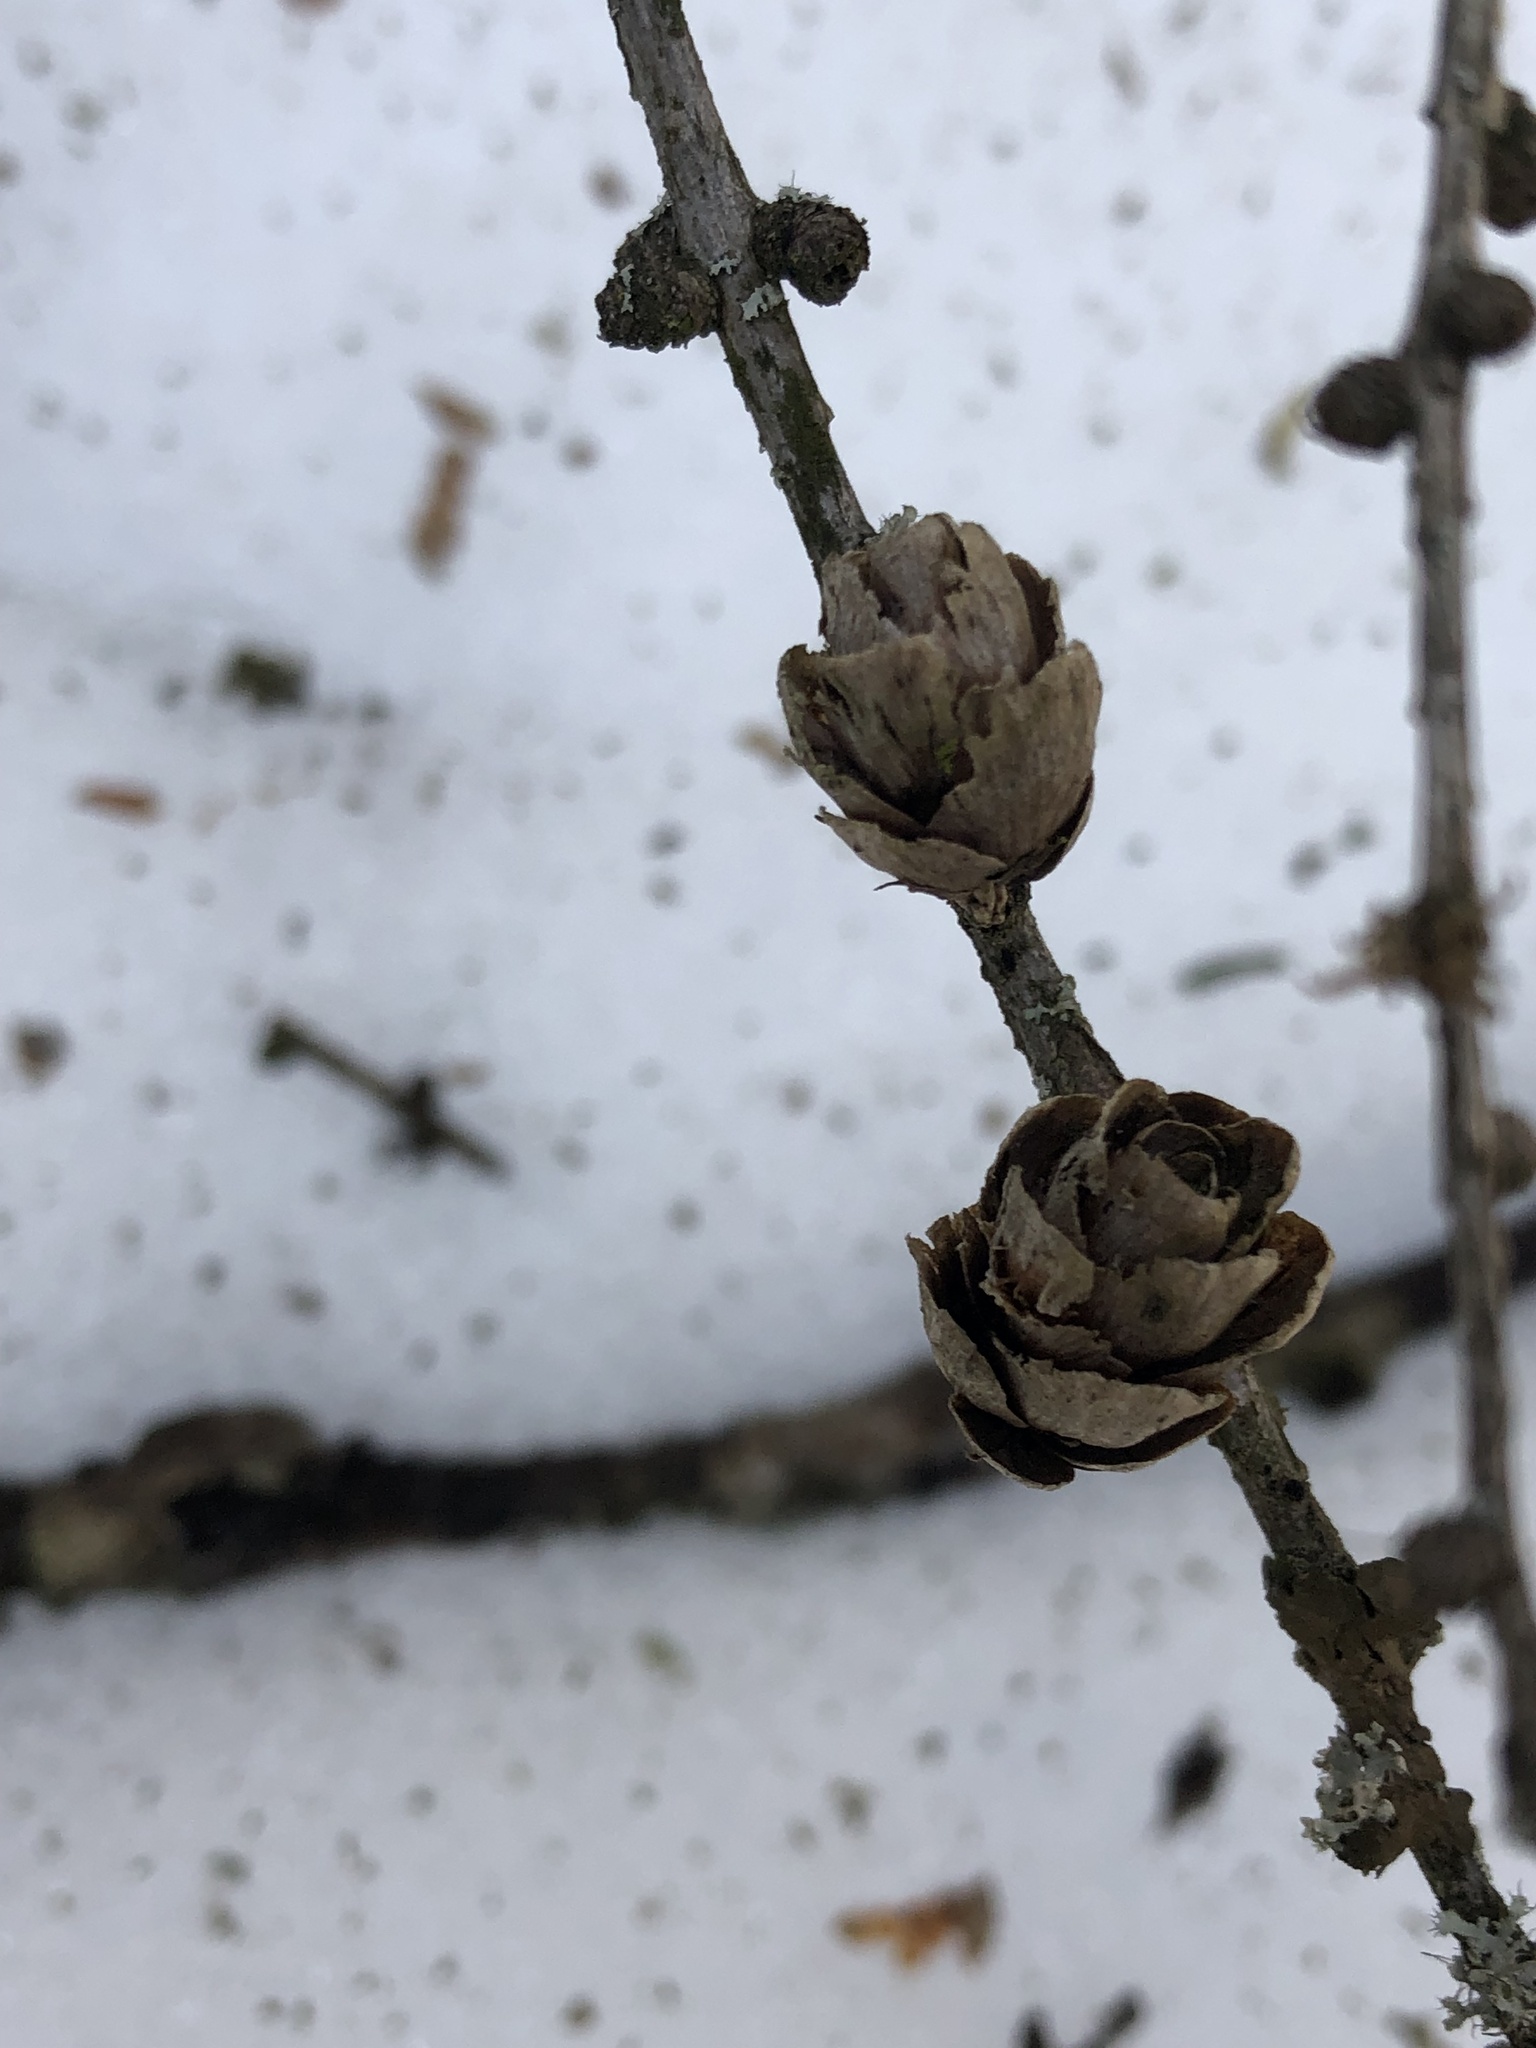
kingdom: Plantae
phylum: Tracheophyta
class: Pinopsida
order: Pinales
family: Pinaceae
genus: Larix
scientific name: Larix laricina
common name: American larch
